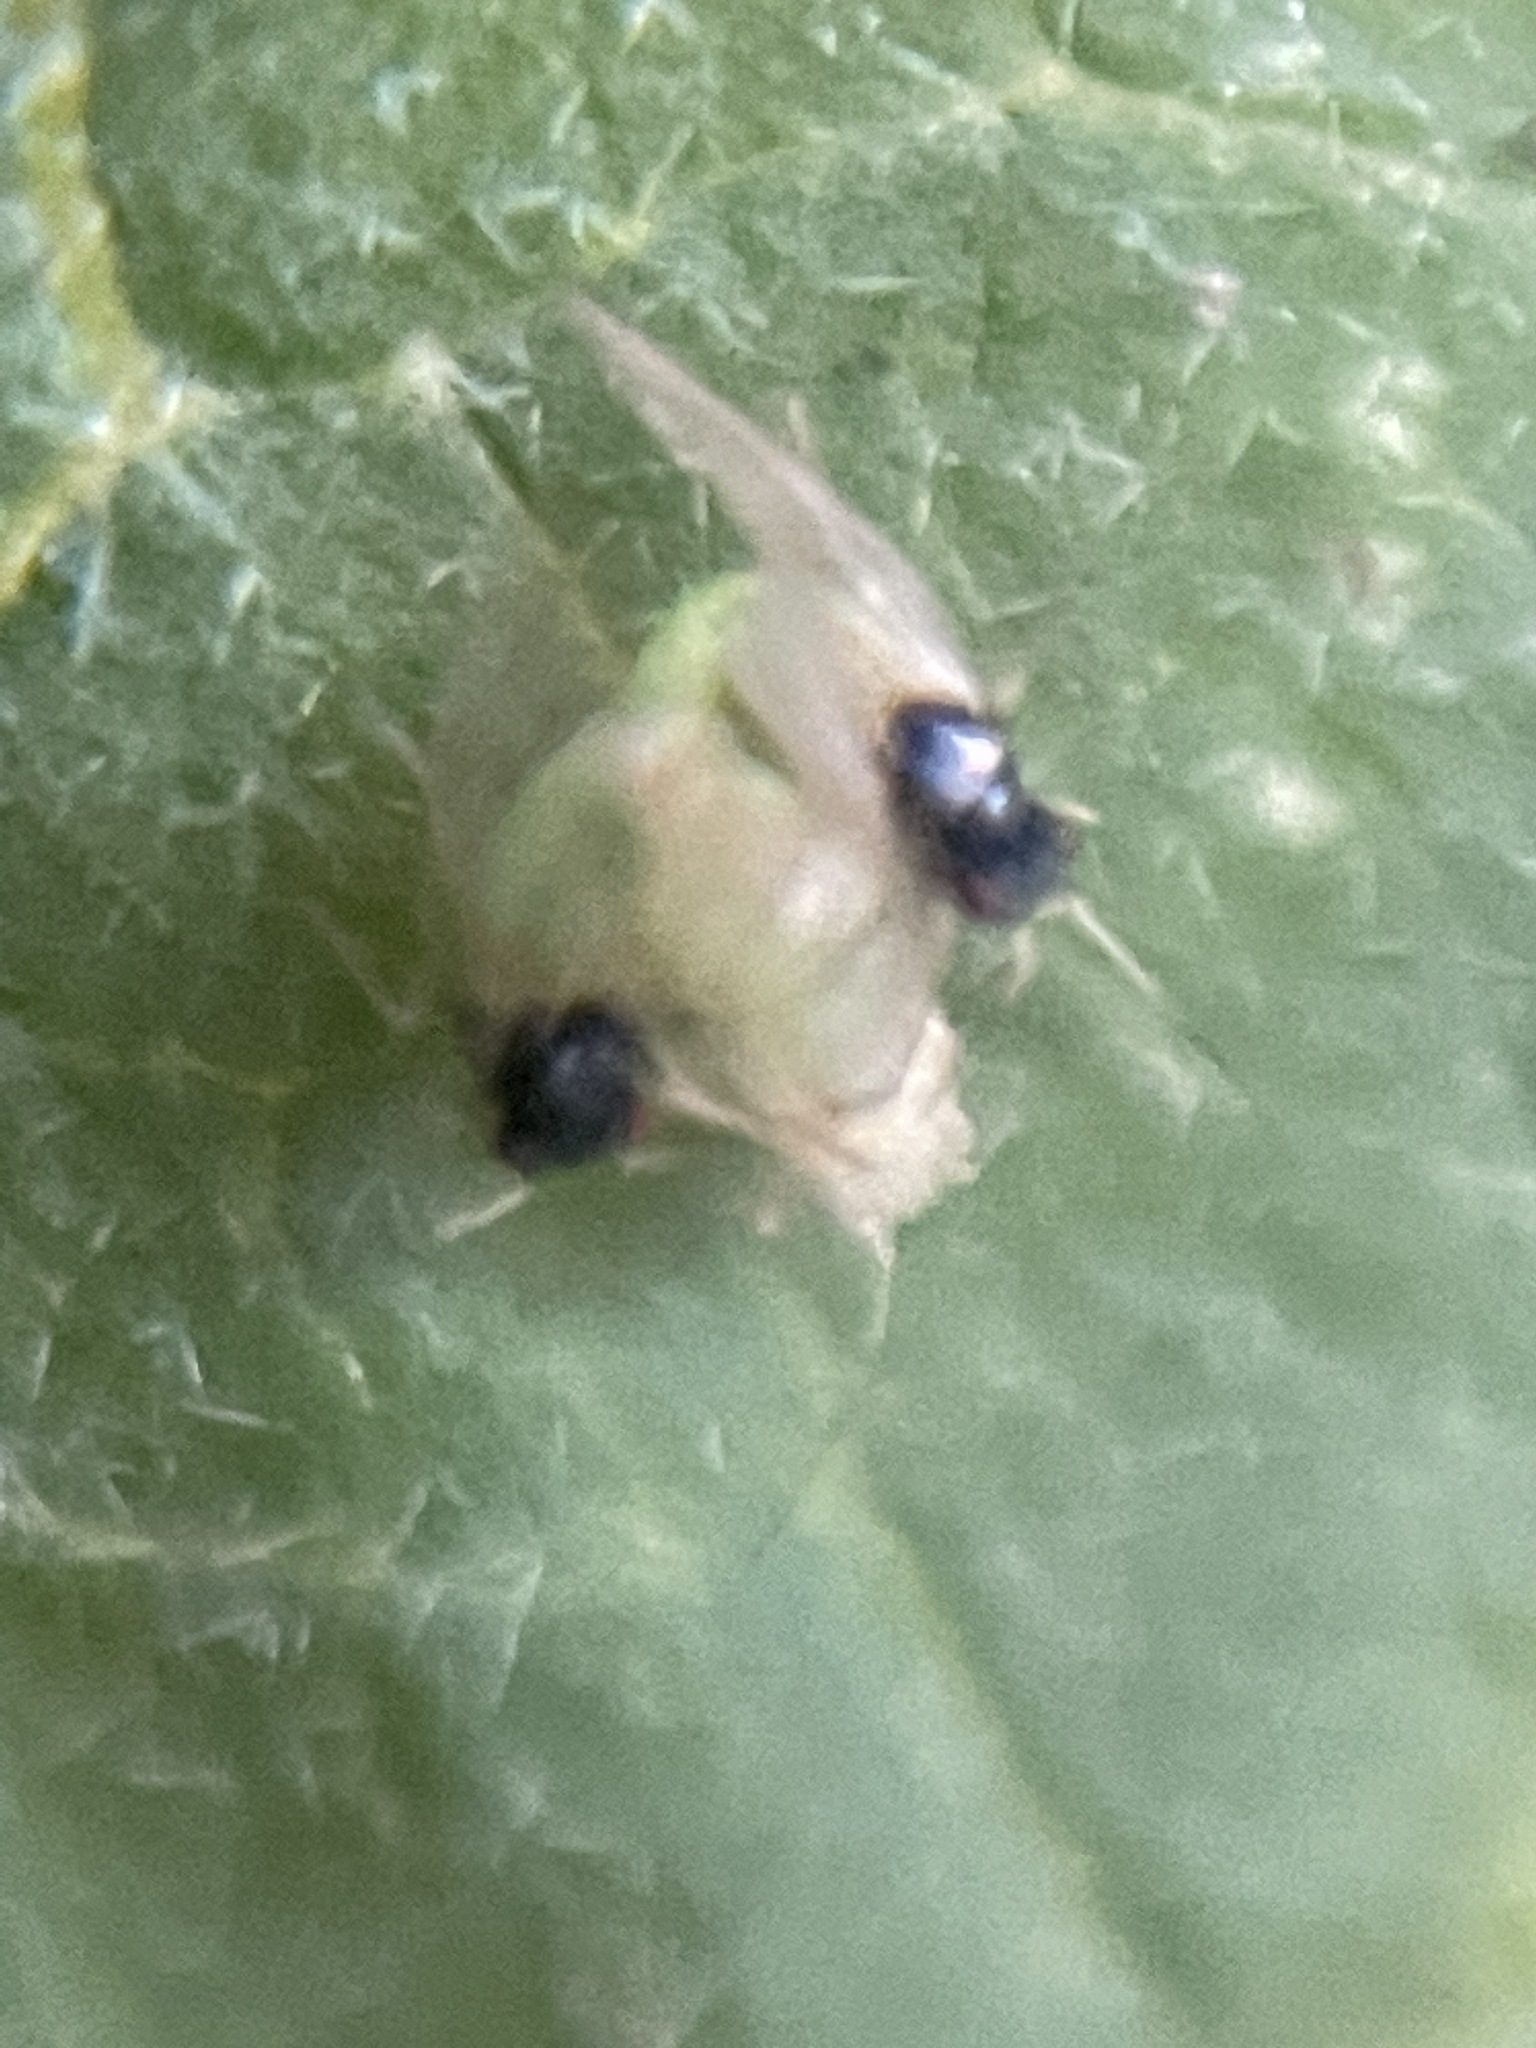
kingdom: Animalia
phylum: Arthropoda
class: Insecta
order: Hemiptera
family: Psyllidae
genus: Acizzia
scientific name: Acizzia solanicola
